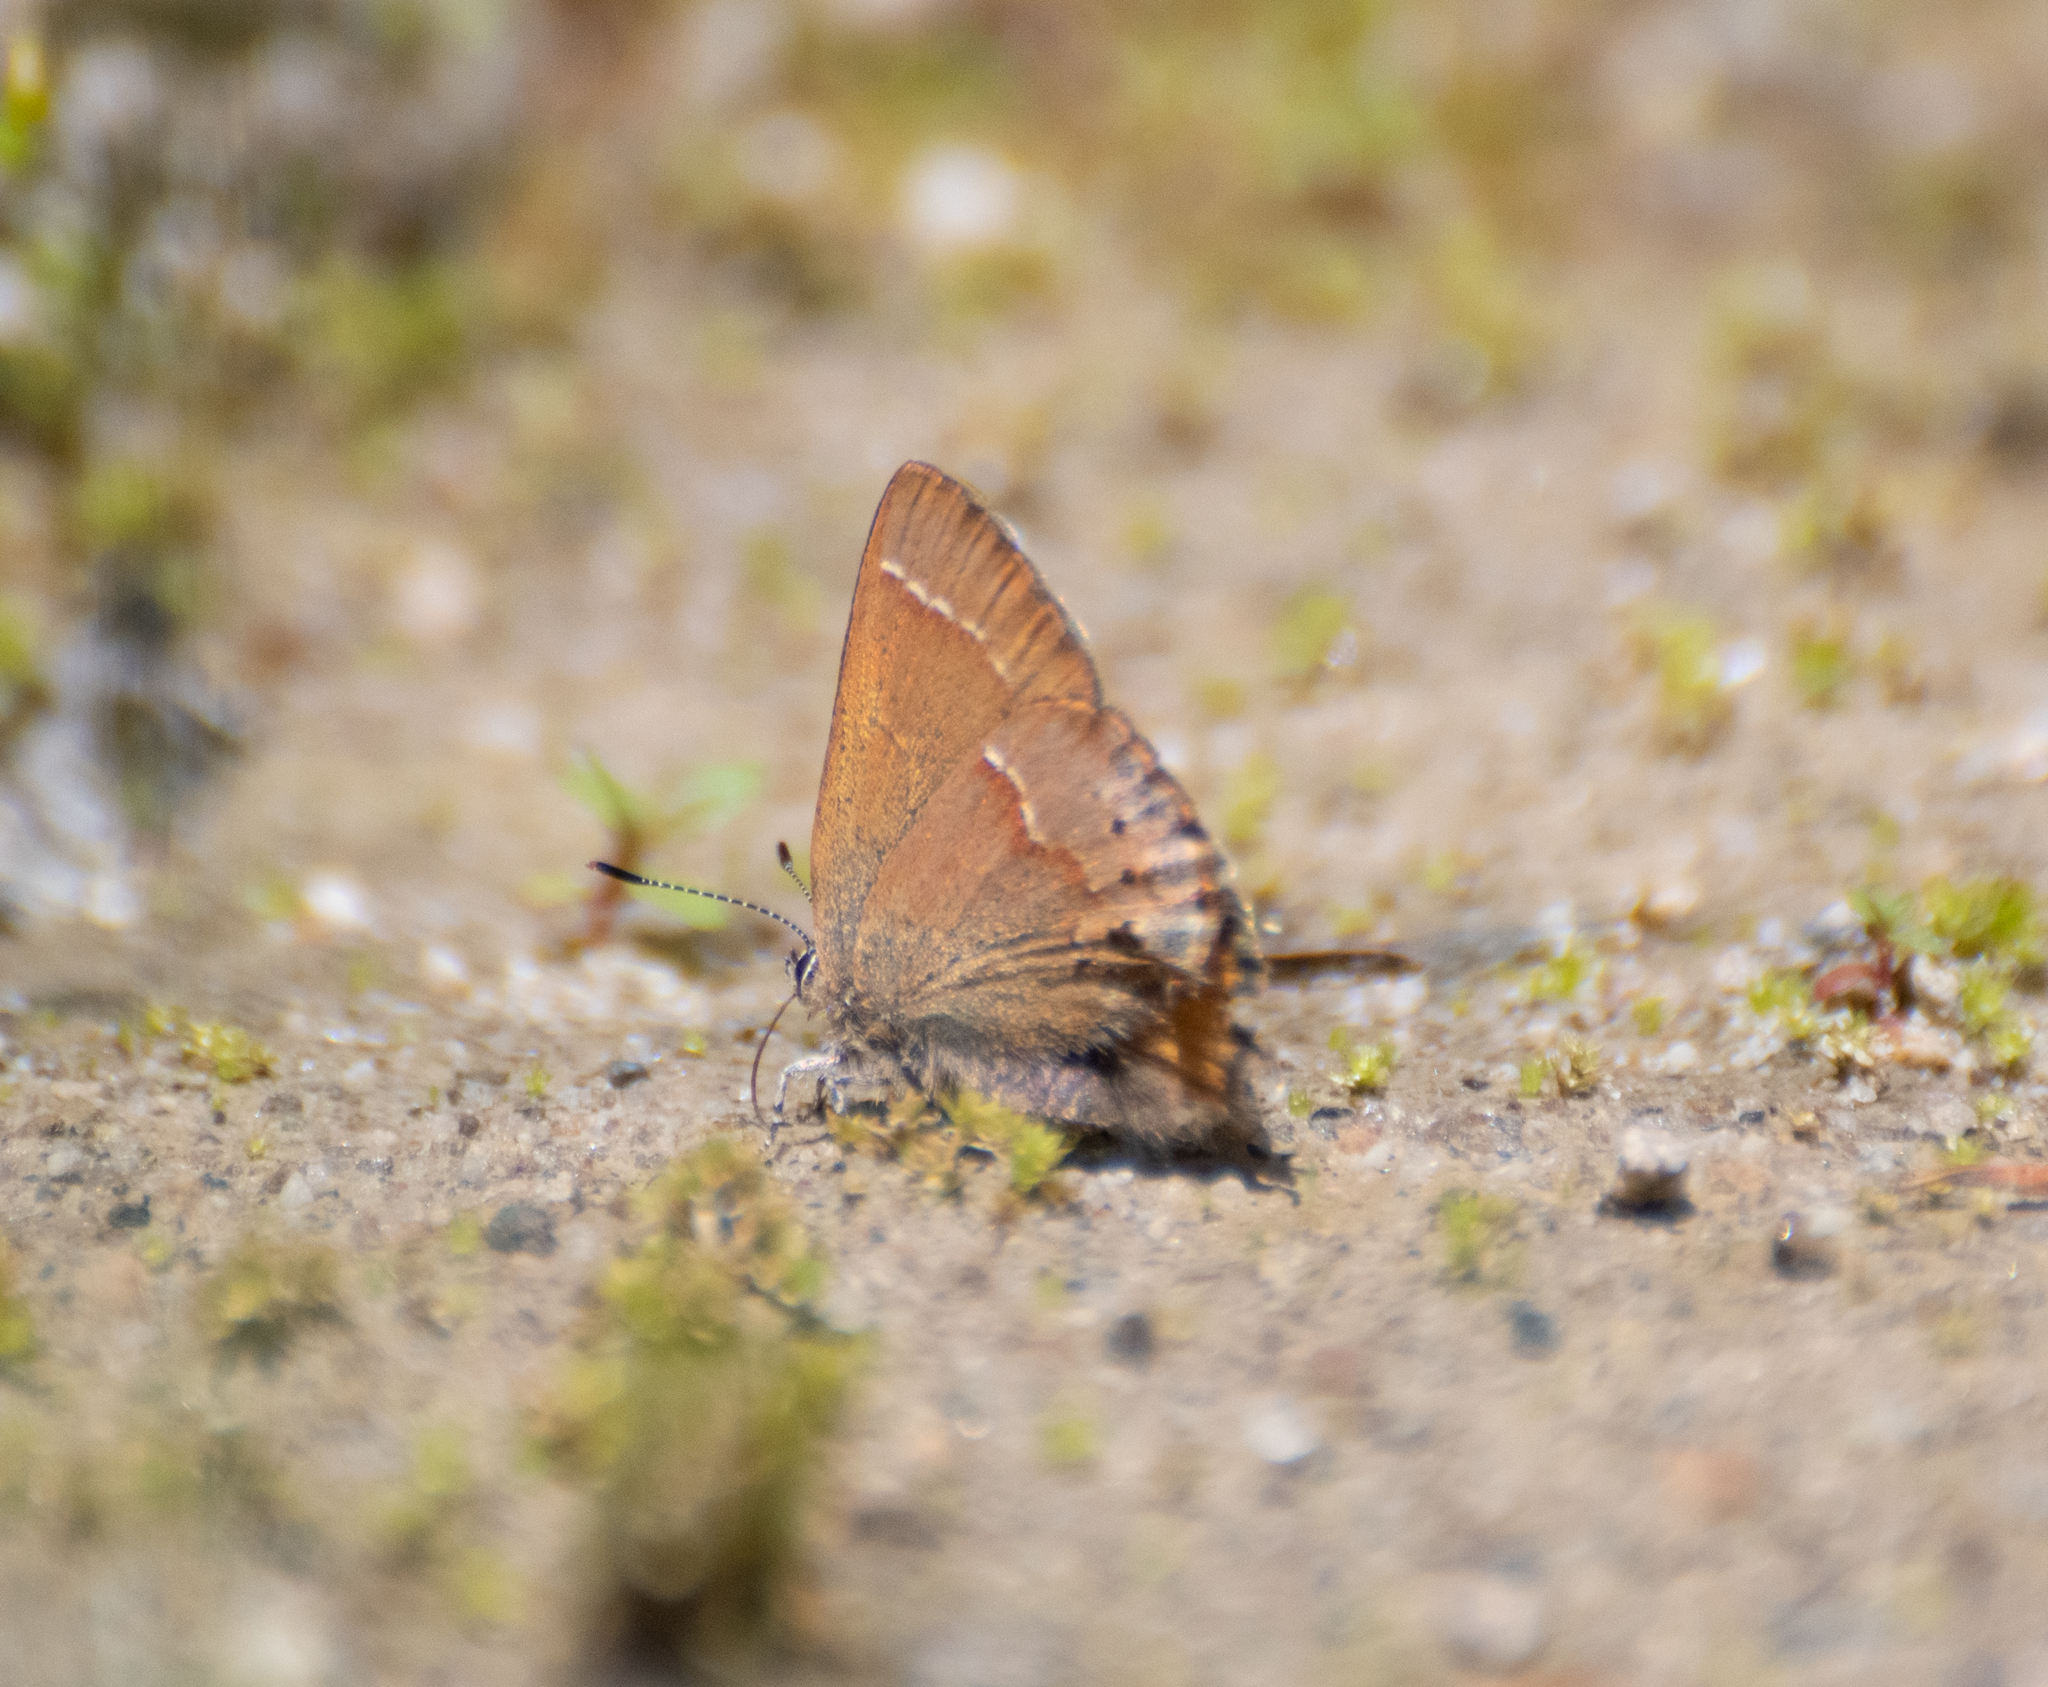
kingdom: Animalia
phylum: Arthropoda
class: Insecta
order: Lepidoptera
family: Lycaenidae
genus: Mitoura
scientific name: Mitoura gryneus
